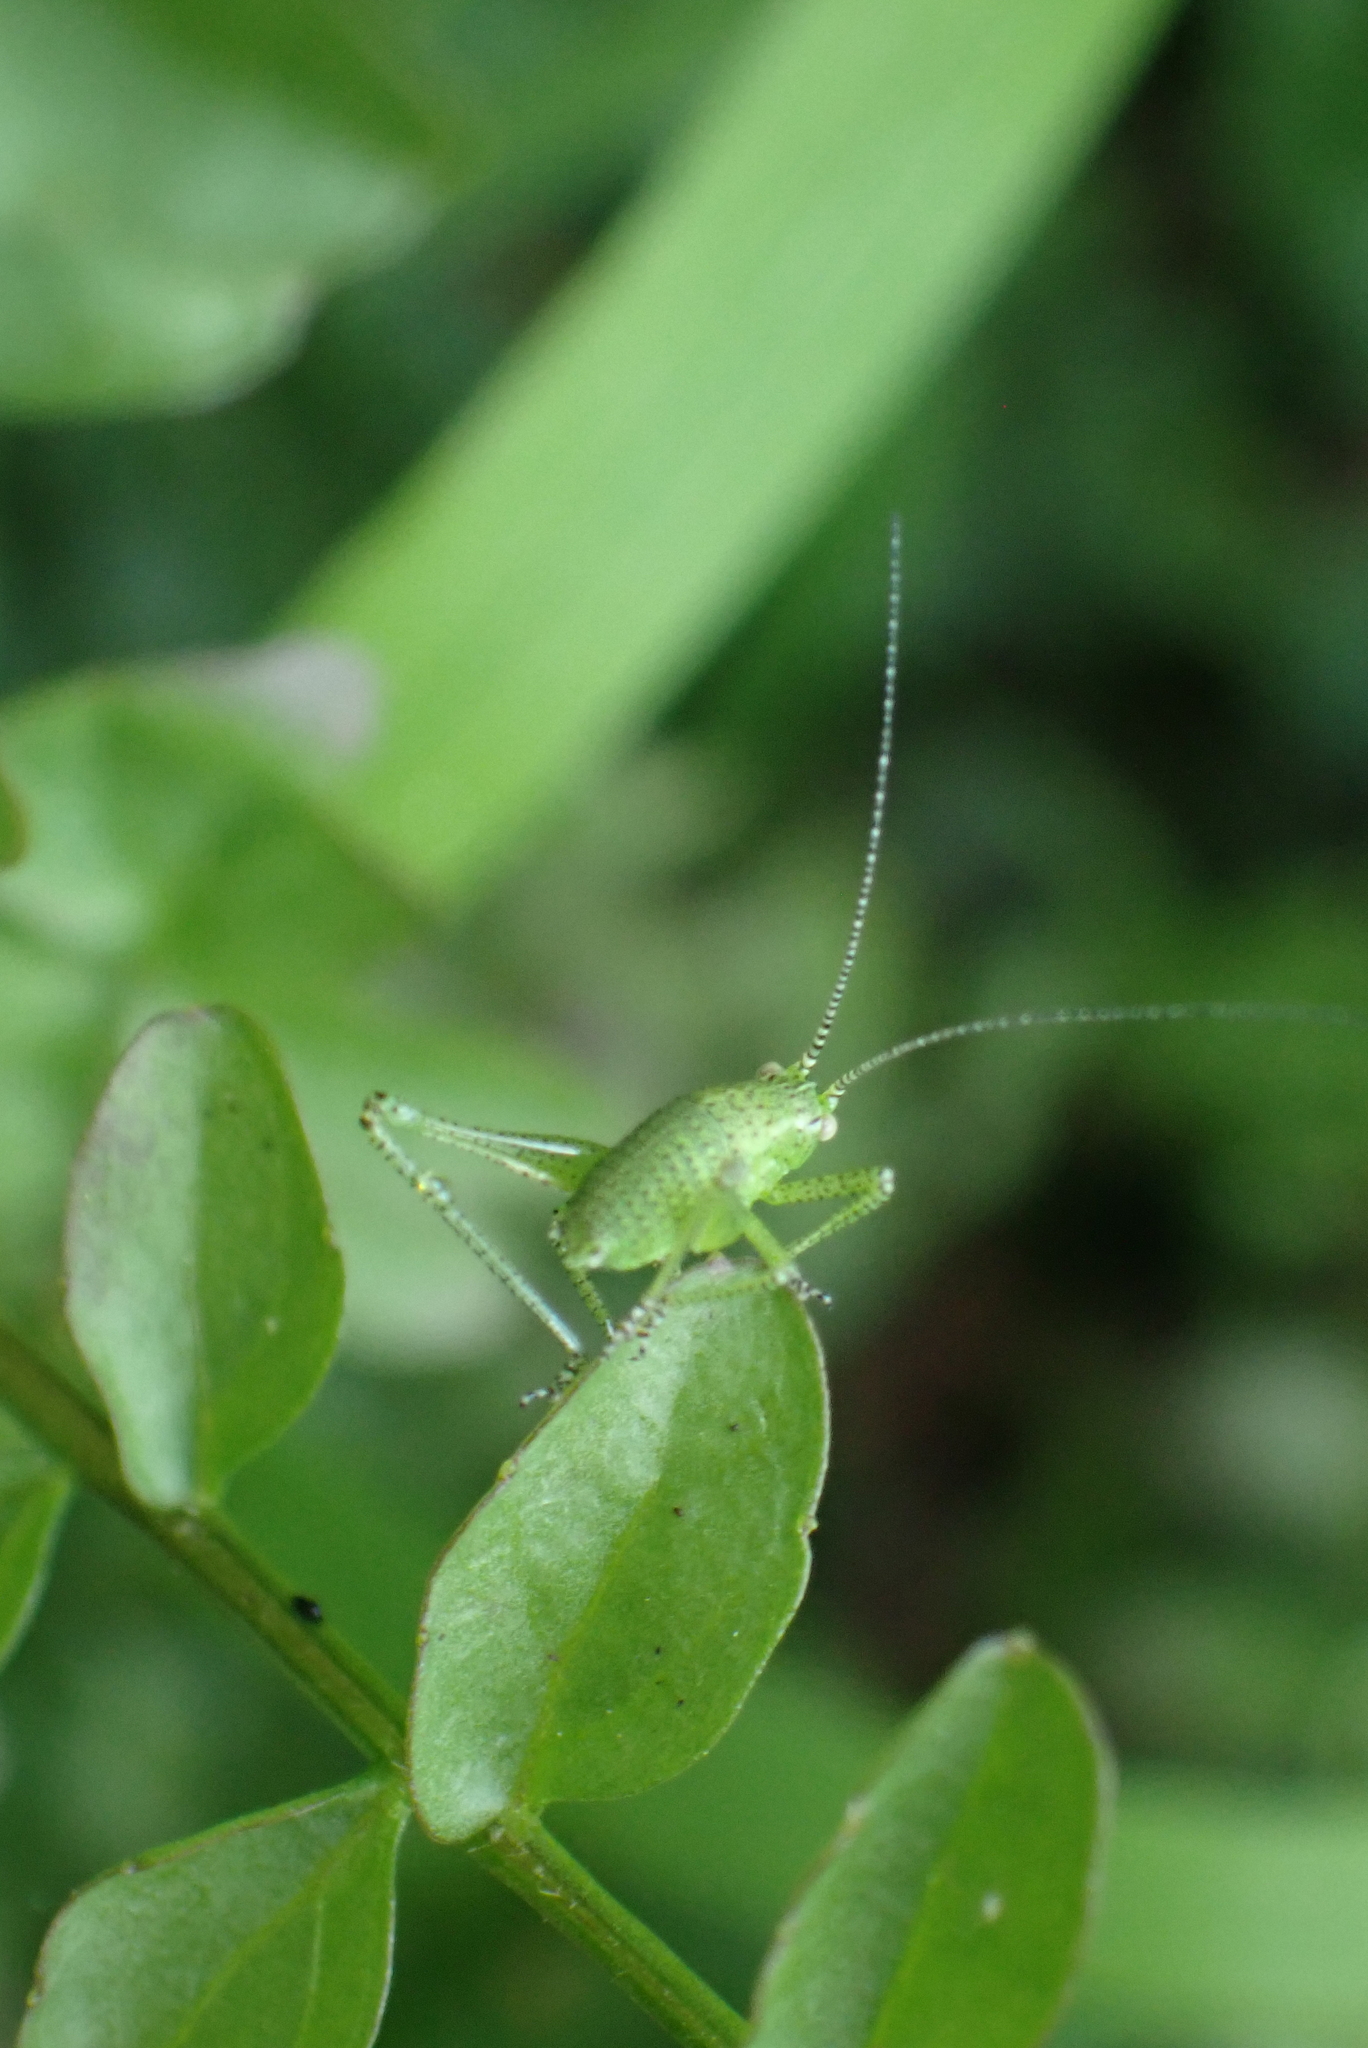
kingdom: Animalia
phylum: Arthropoda
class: Insecta
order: Orthoptera
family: Tettigoniidae
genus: Leptophyes
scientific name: Leptophyes punctatissima
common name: Speckled bush-cricket
